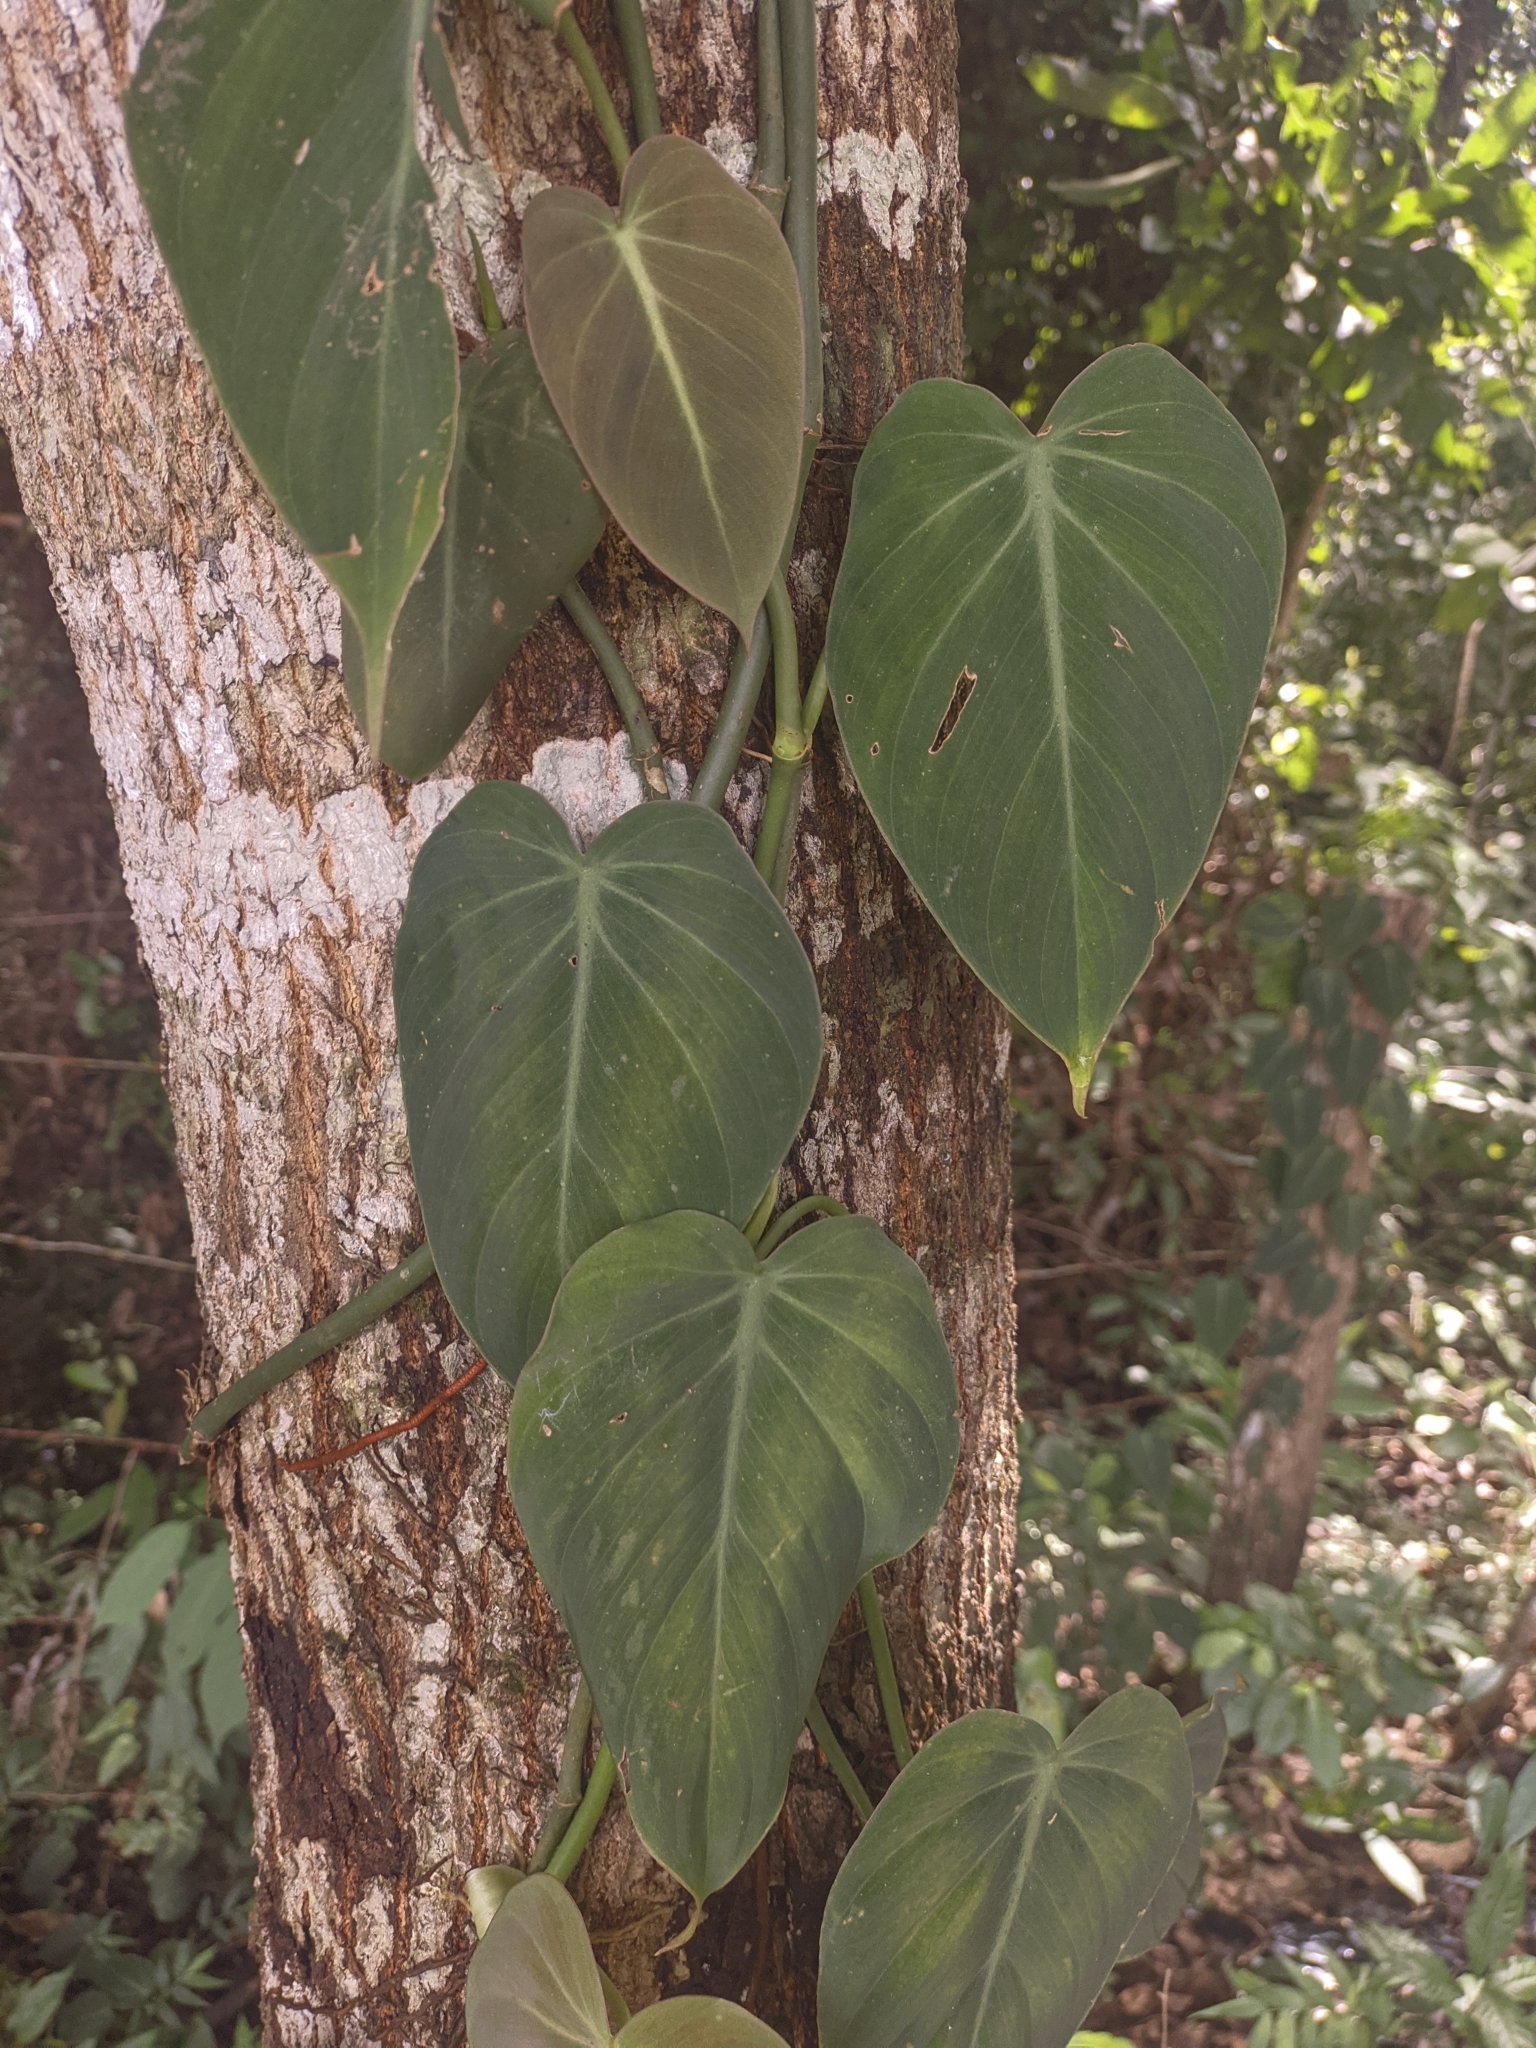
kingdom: Plantae
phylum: Tracheophyta
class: Liliopsida
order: Alismatales
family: Araceae
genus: Philodendron
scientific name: Philodendron hederaceum
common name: Vilevine
